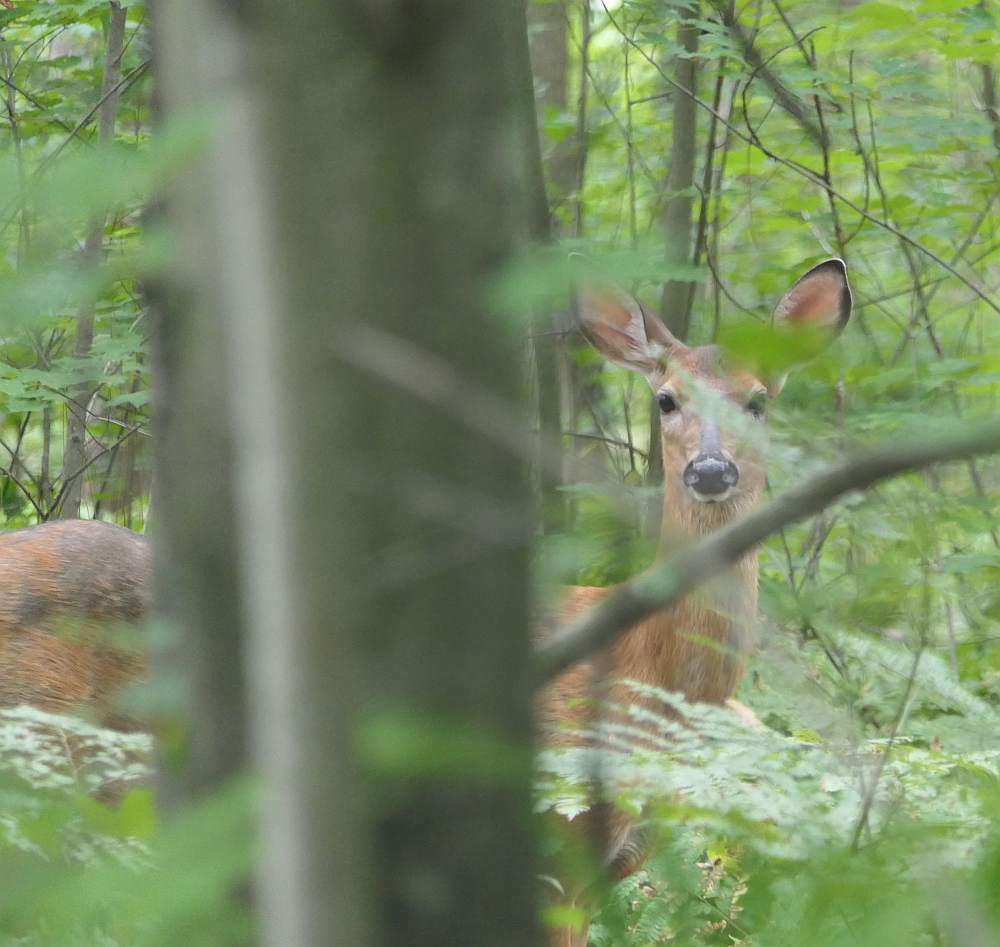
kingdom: Animalia
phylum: Chordata
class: Mammalia
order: Artiodactyla
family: Cervidae
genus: Odocoileus
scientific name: Odocoileus virginianus
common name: White-tailed deer
